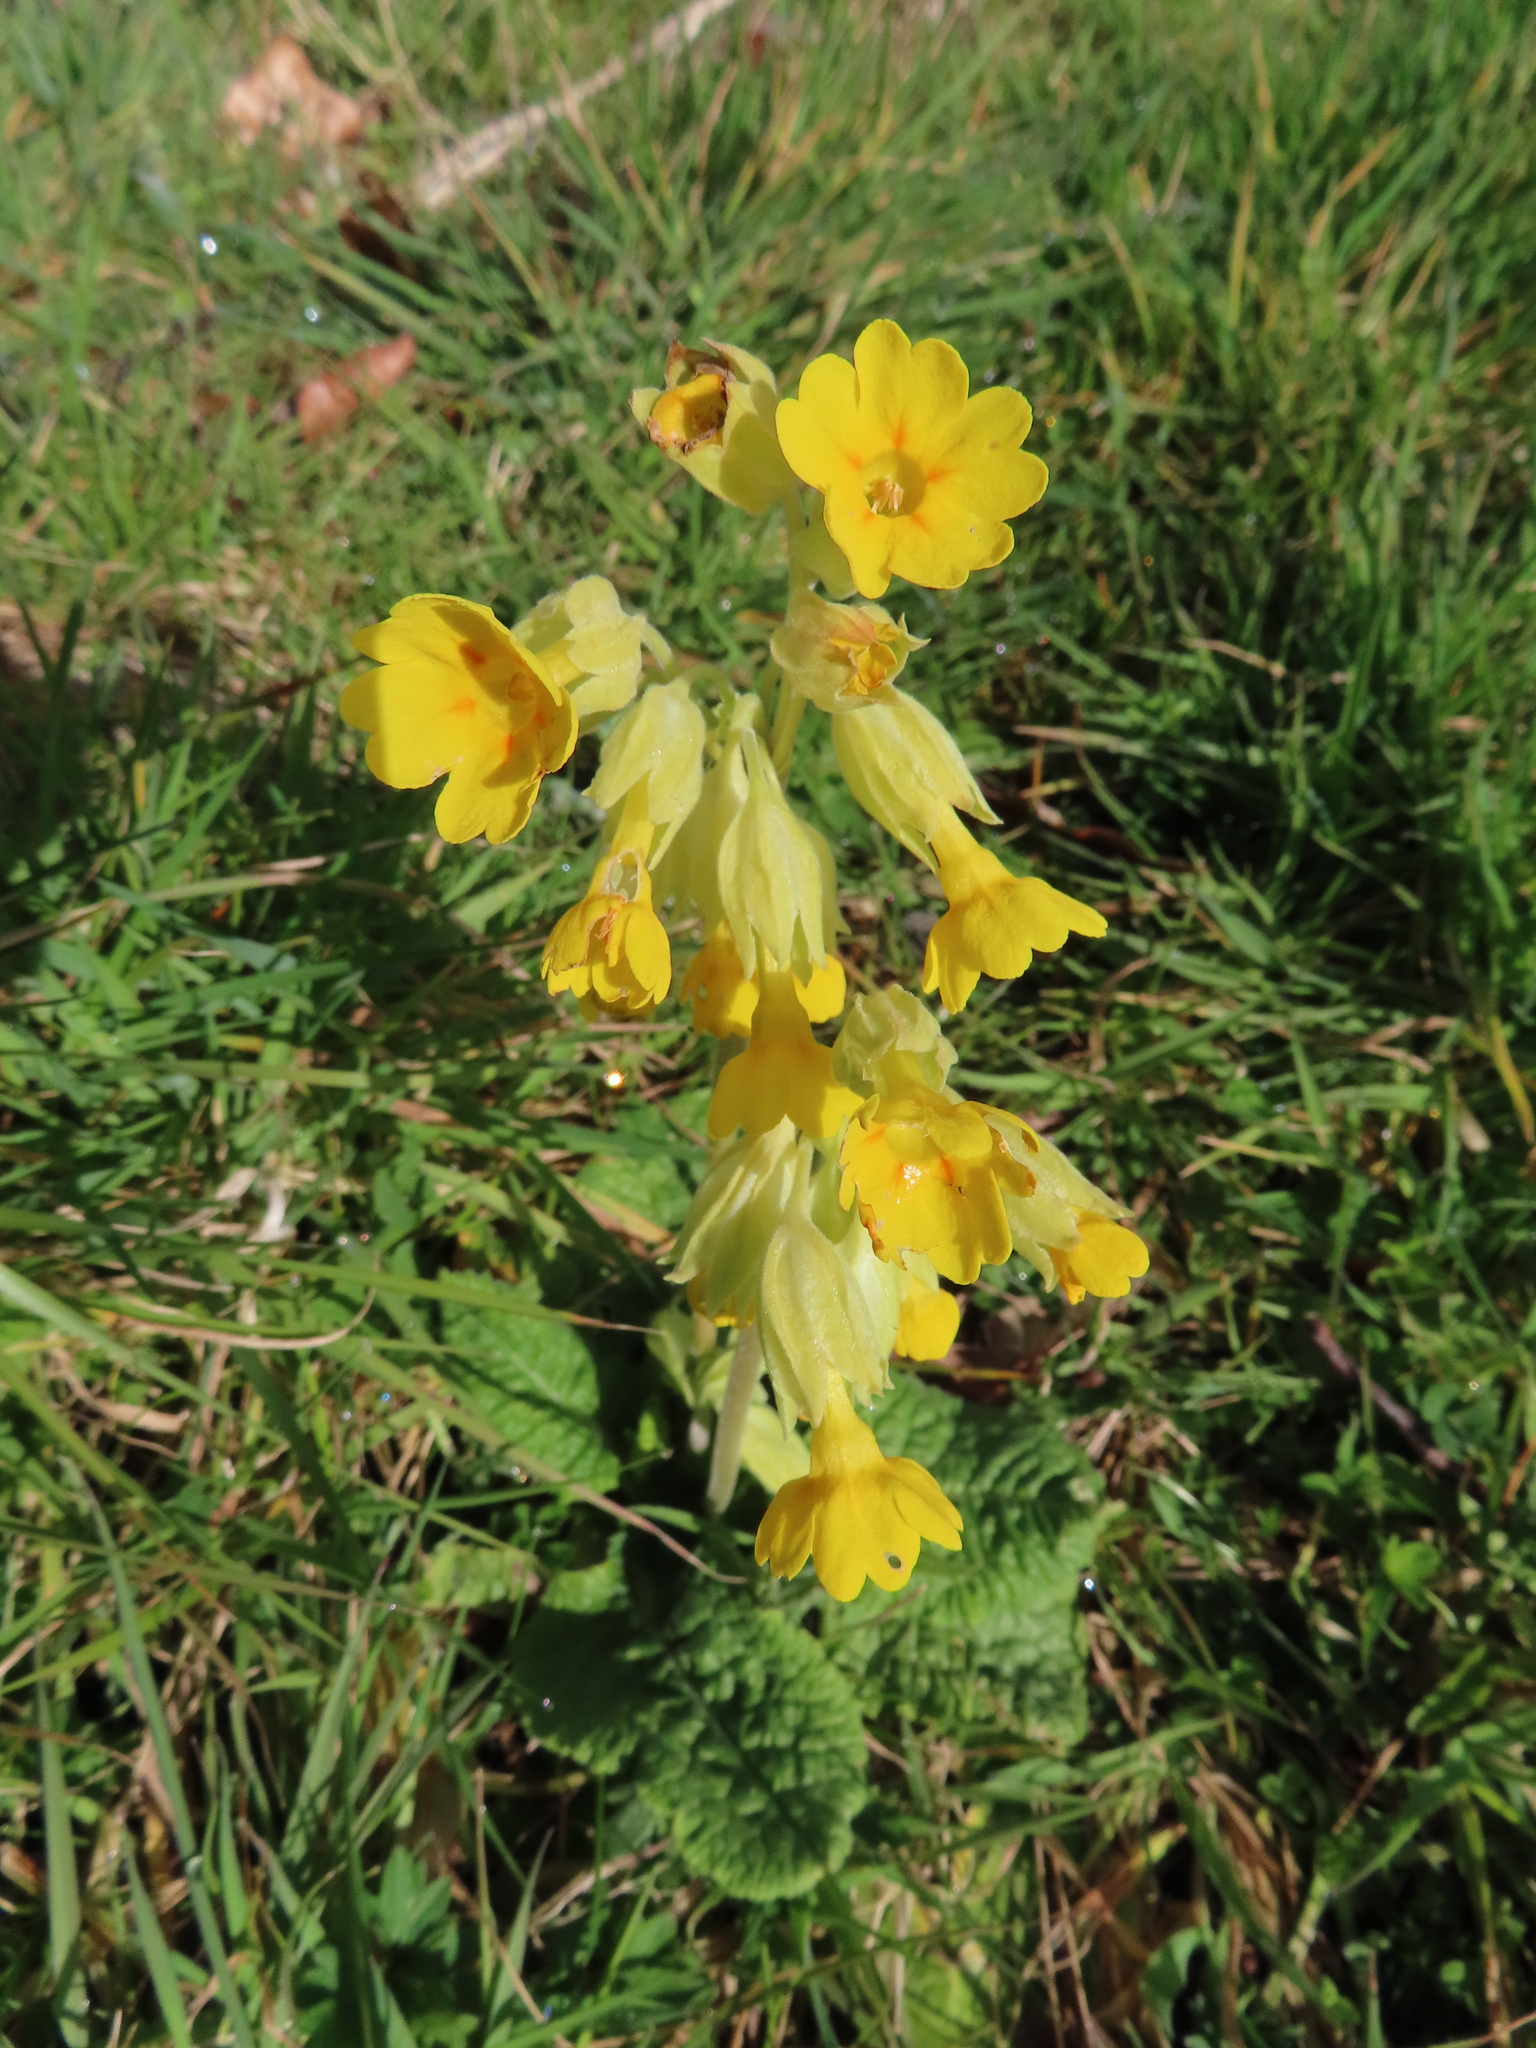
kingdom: Plantae
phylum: Tracheophyta
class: Magnoliopsida
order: Ericales
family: Primulaceae
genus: Primula
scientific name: Primula veris
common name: Cowslip
